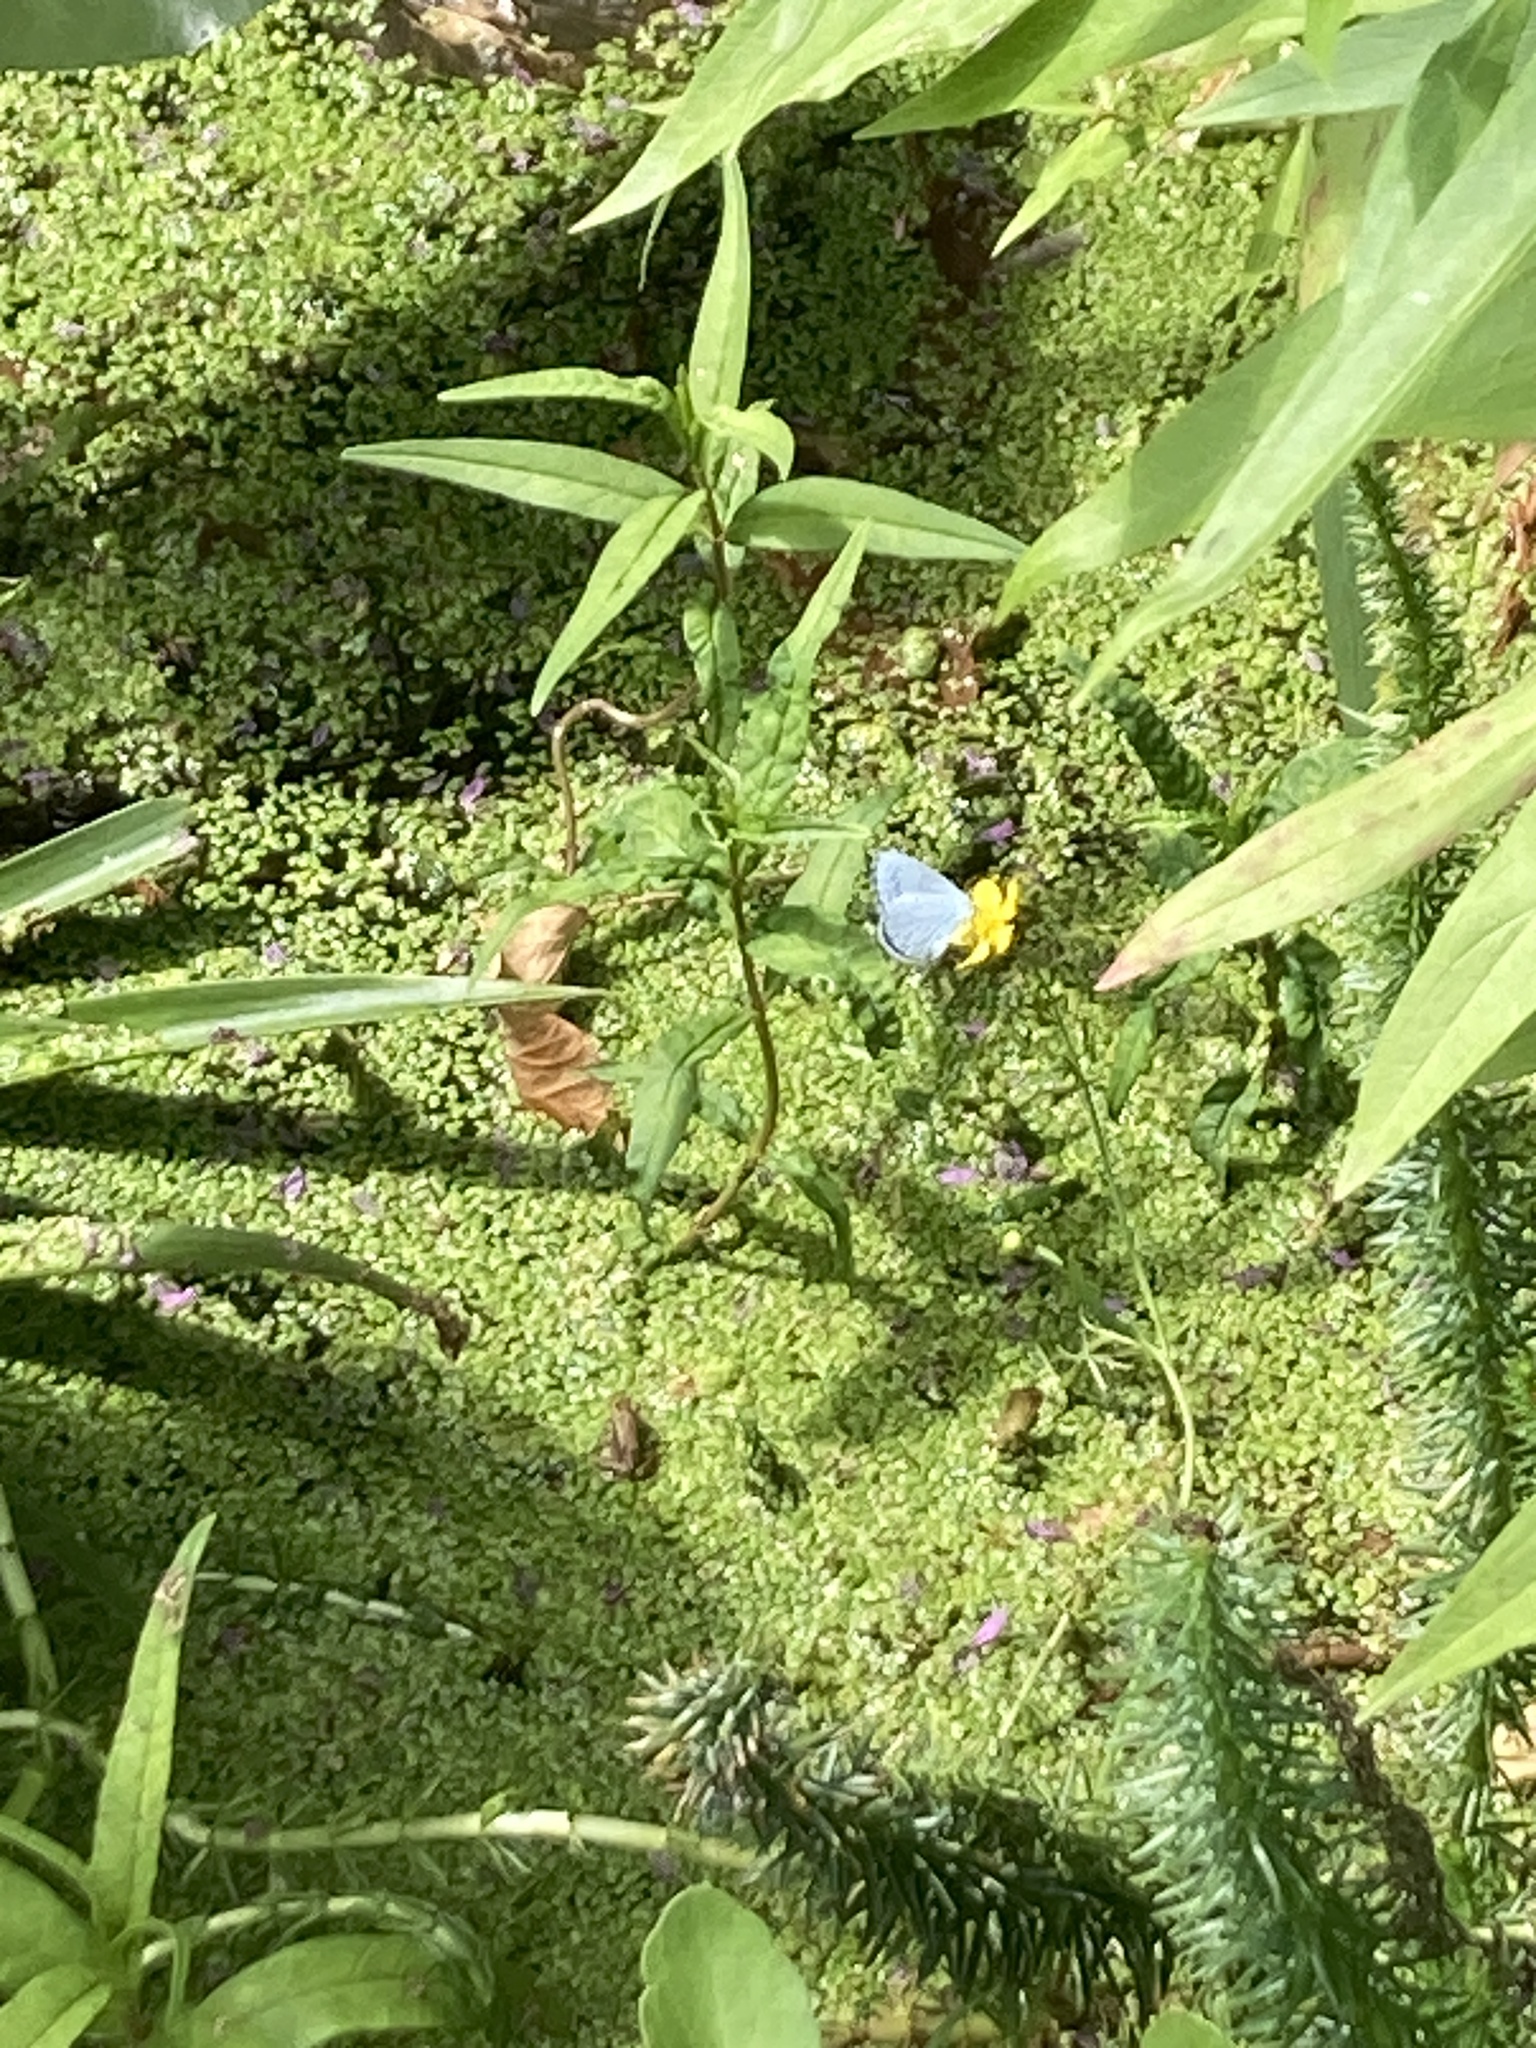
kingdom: Animalia
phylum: Arthropoda
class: Insecta
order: Lepidoptera
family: Lycaenidae
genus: Celastrina
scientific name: Celastrina argiolus
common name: Holly blue
